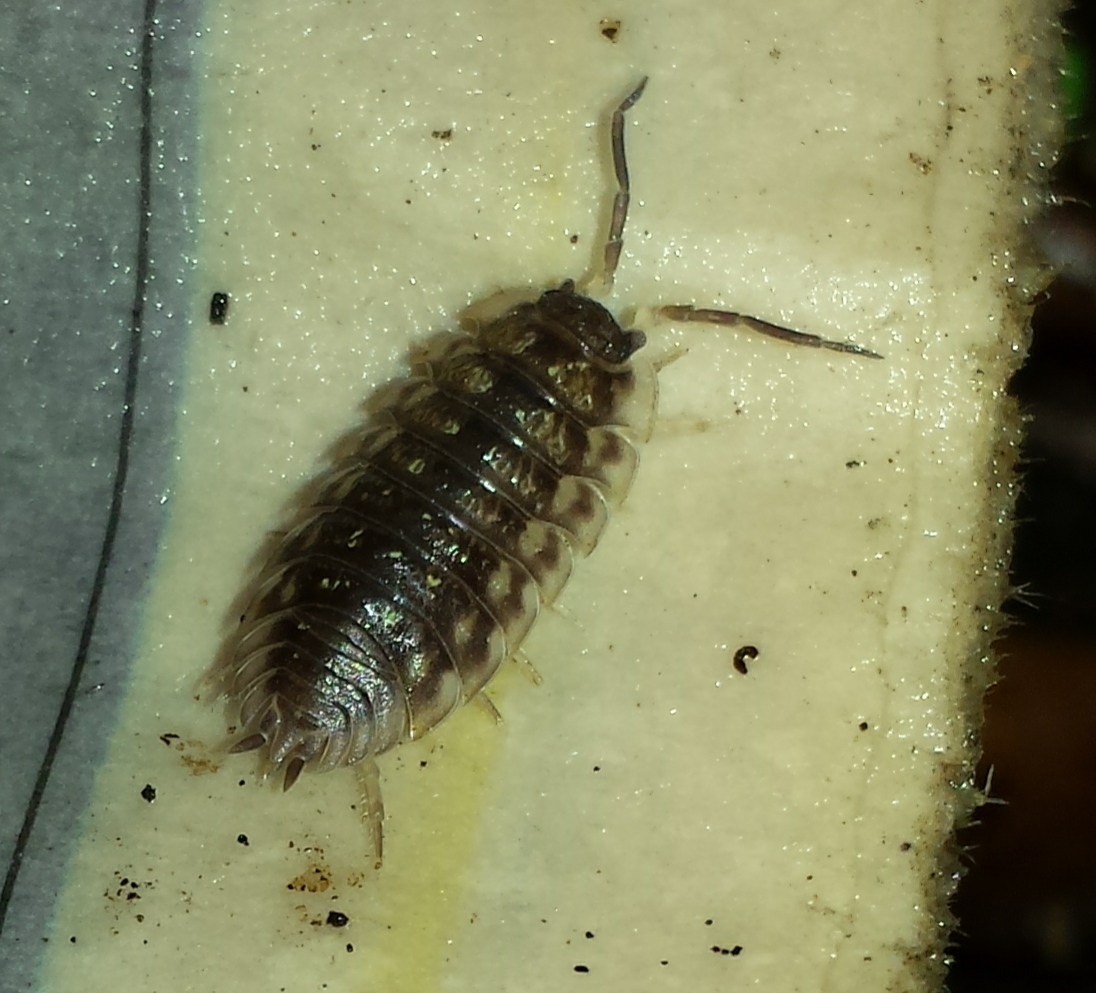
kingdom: Animalia
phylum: Arthropoda
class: Malacostraca
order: Isopoda
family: Oniscidae
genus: Oniscus
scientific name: Oniscus asellus
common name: Common shiny woodlouse
